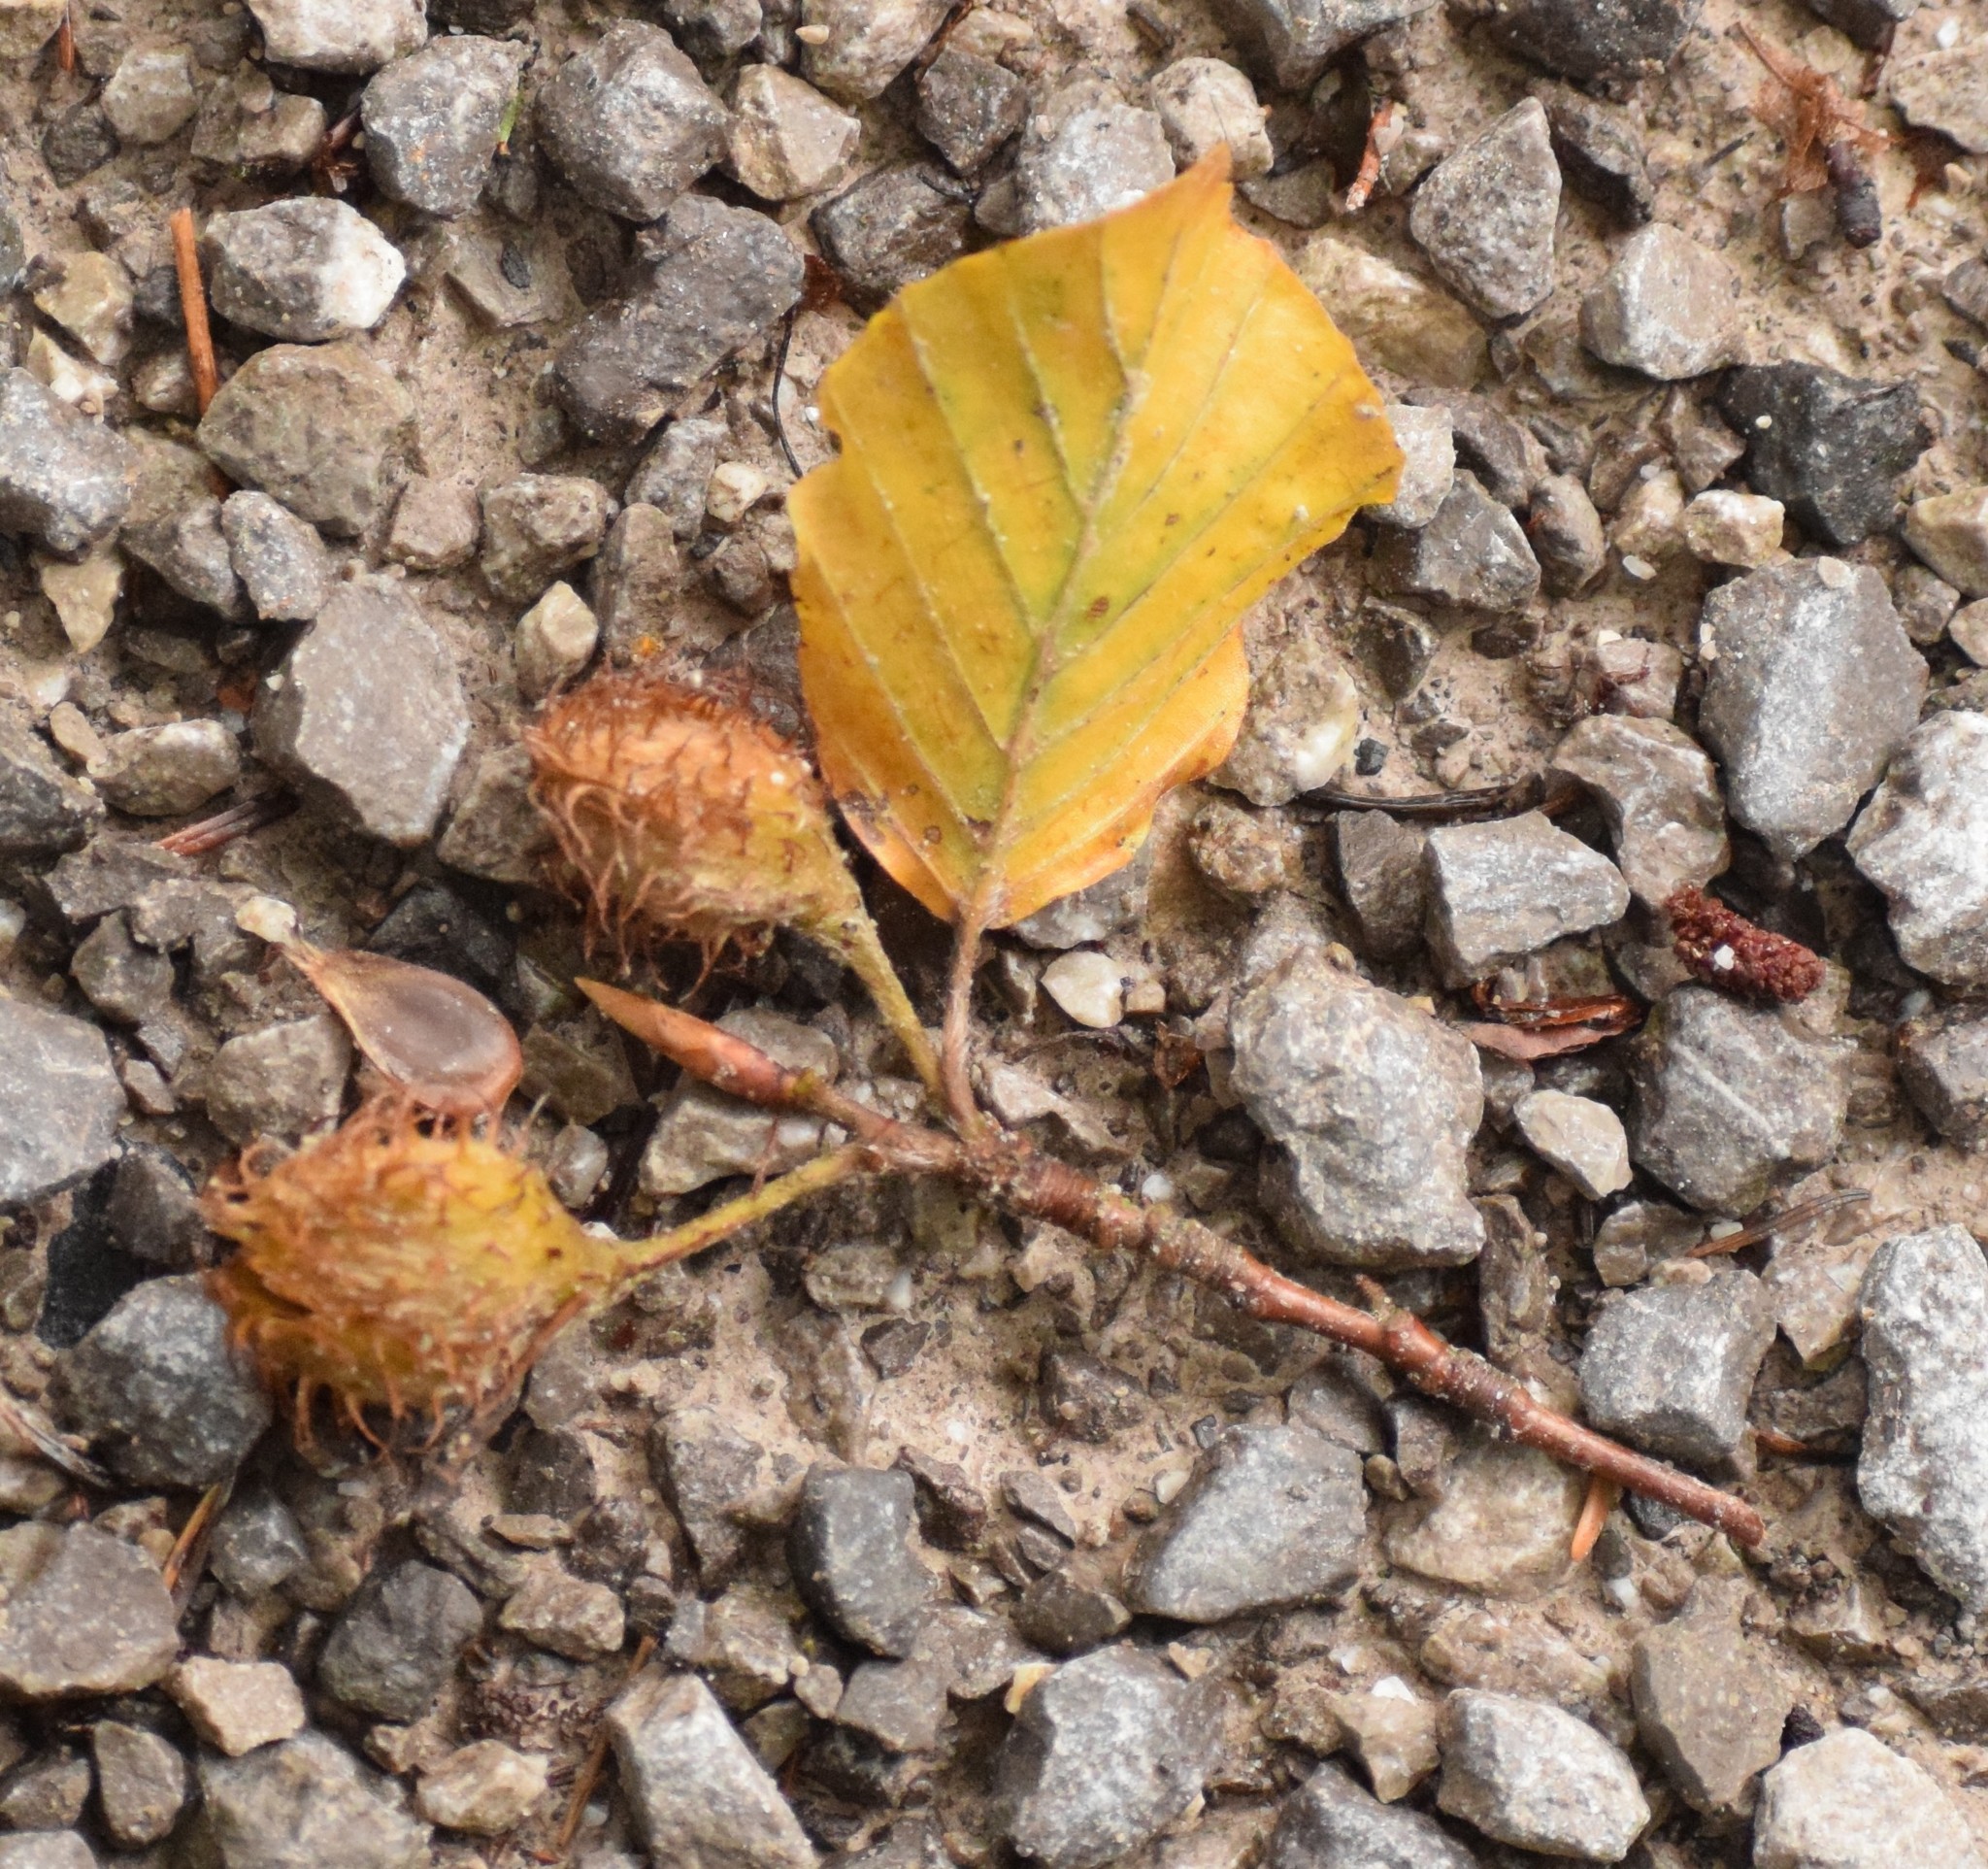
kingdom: Plantae
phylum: Tracheophyta
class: Magnoliopsida
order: Fagales
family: Fagaceae
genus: Fagus
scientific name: Fagus sylvatica
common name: Beech
